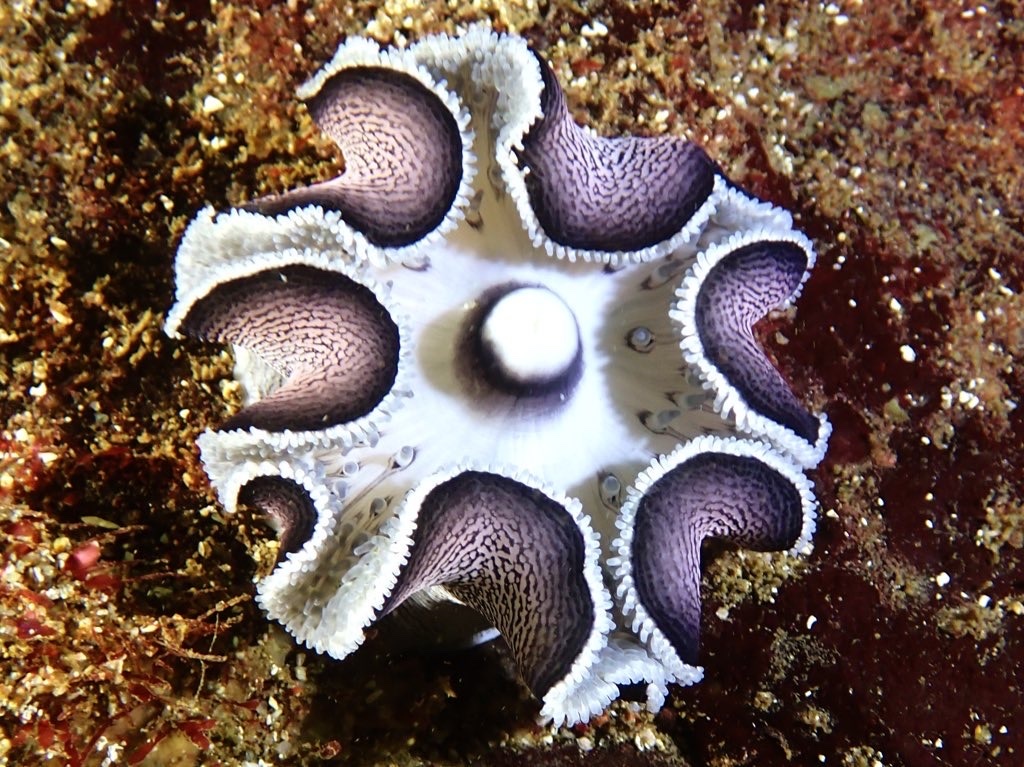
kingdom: Animalia
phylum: Cnidaria
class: Anthozoa
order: Actiniaria
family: Actinostolidae
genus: Antholoba
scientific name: Antholoba achates
